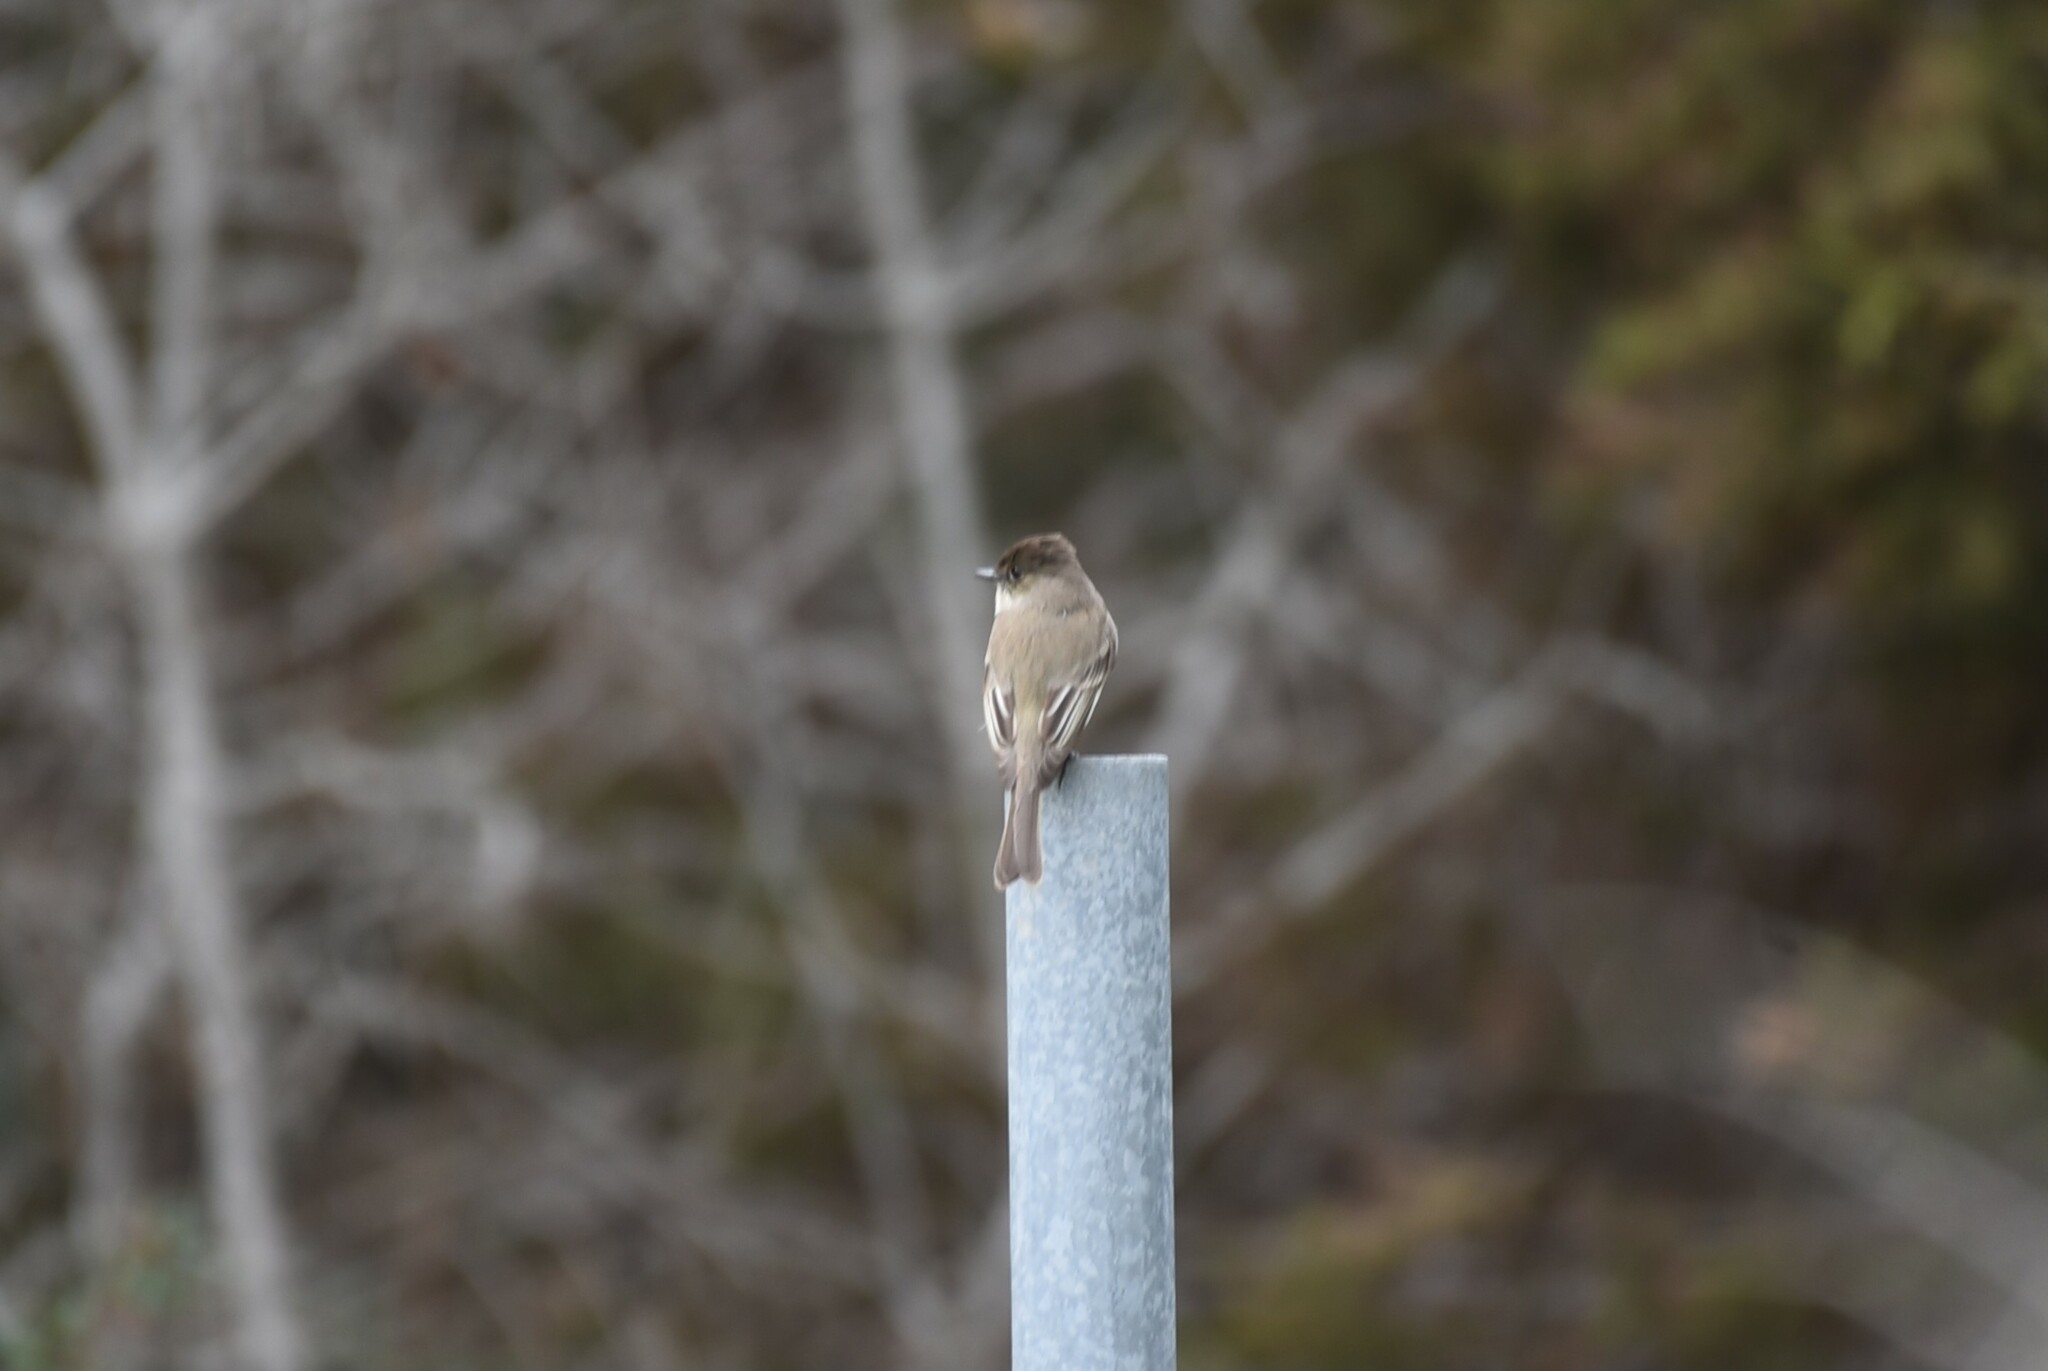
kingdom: Animalia
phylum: Chordata
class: Aves
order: Passeriformes
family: Tyrannidae
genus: Sayornis
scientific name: Sayornis phoebe
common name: Eastern phoebe
